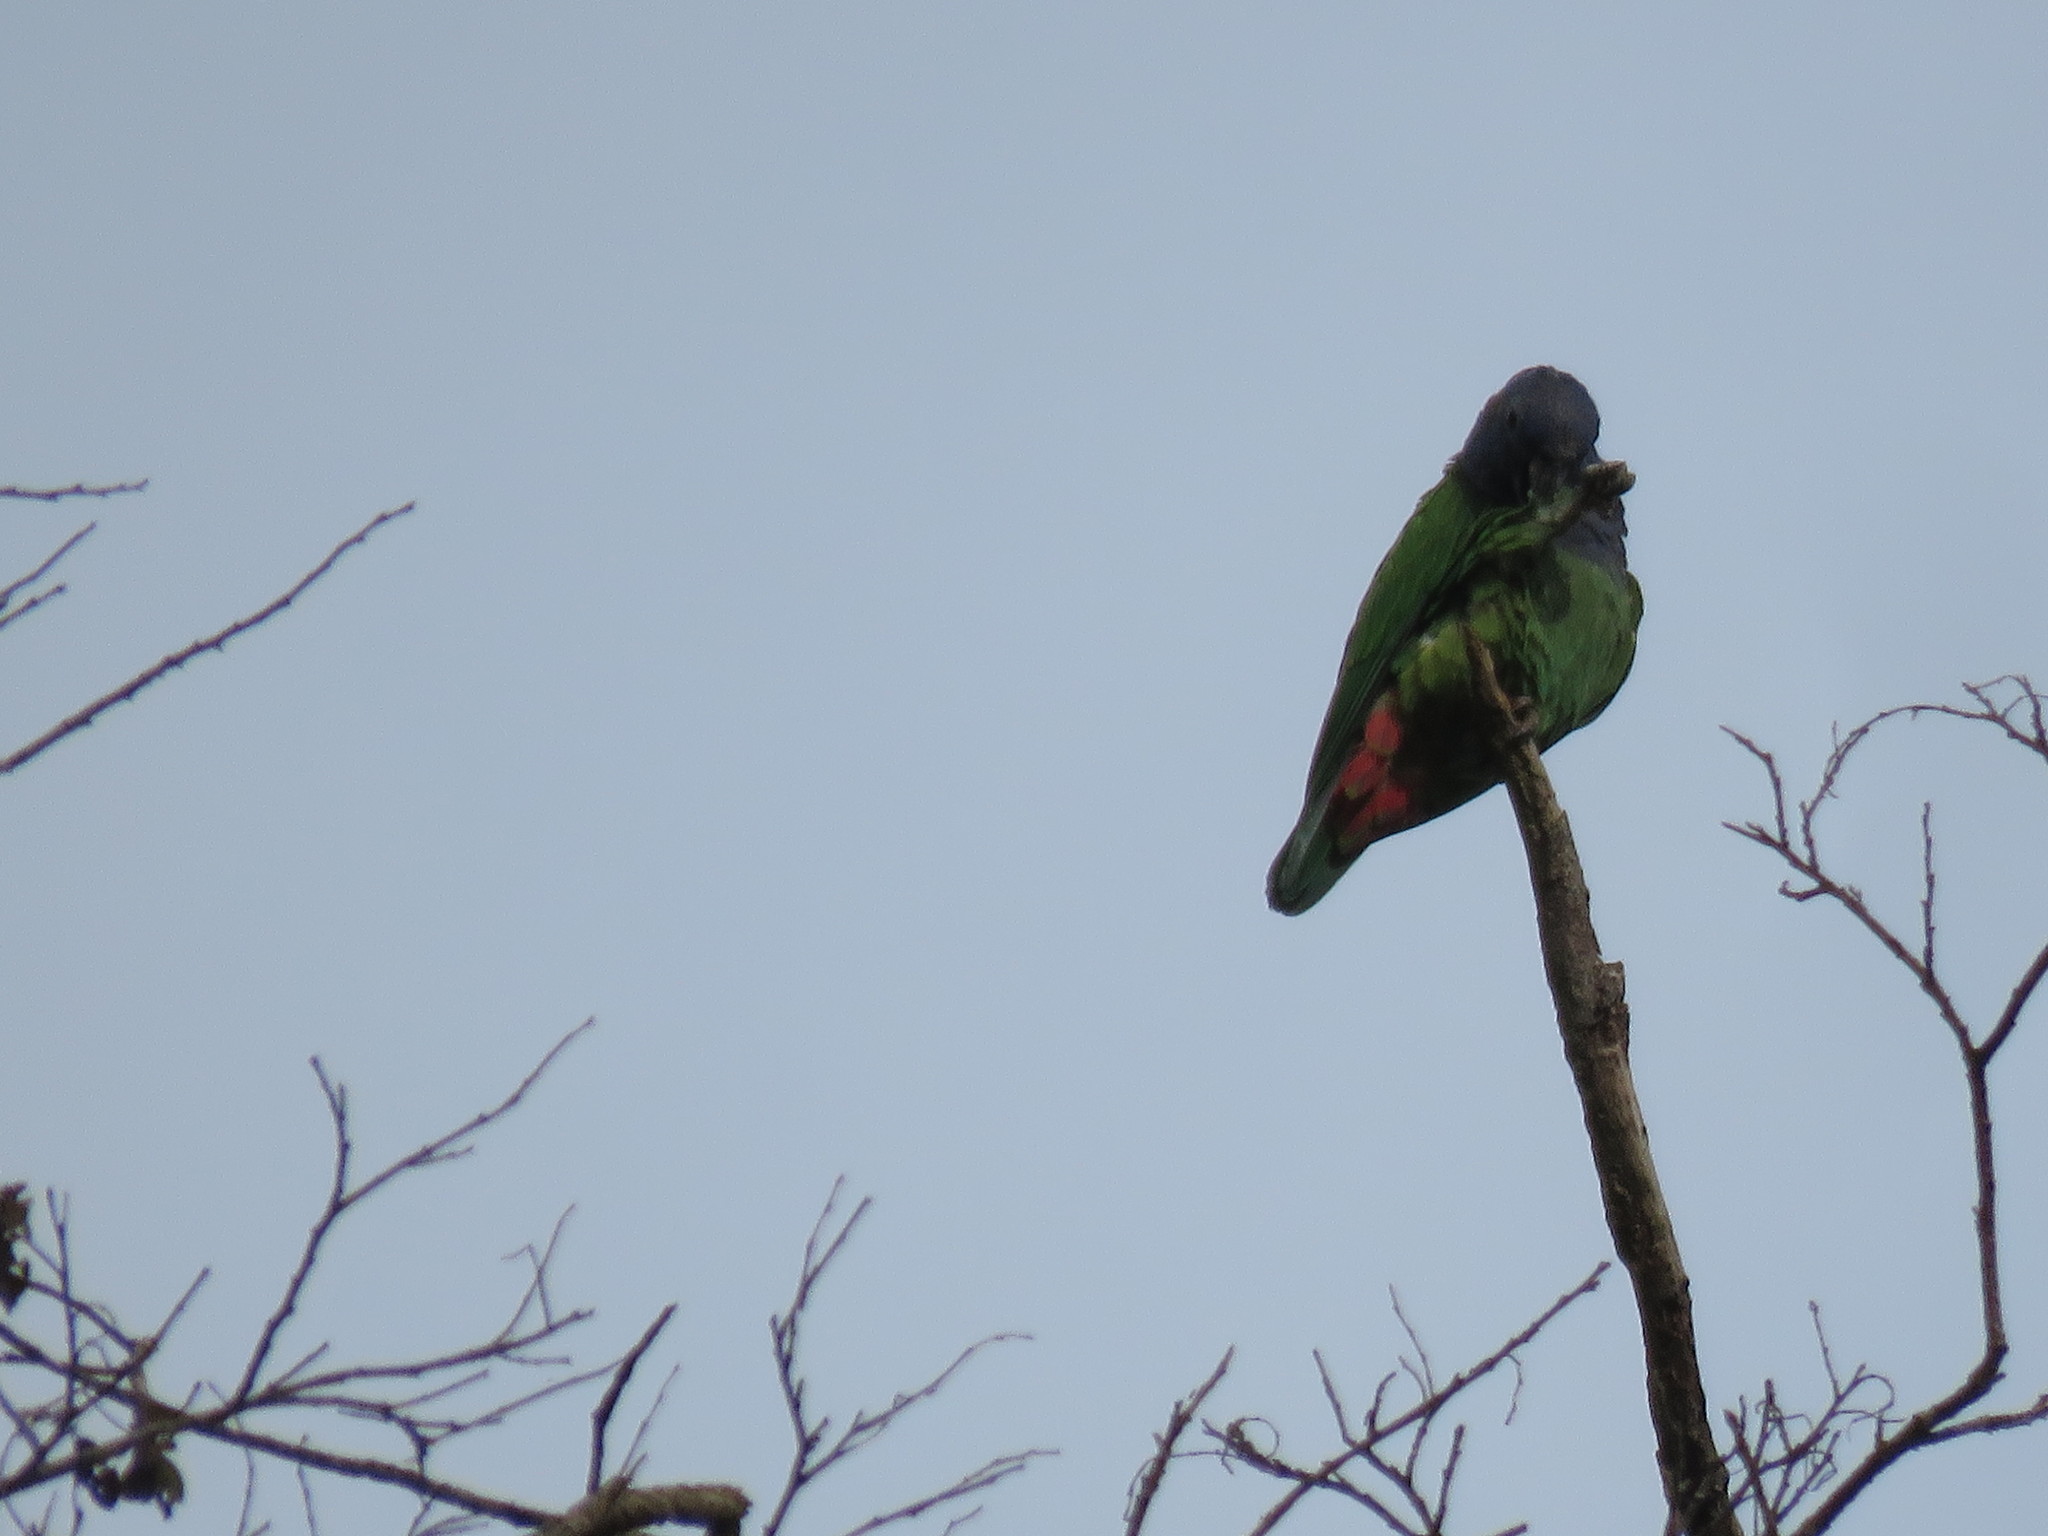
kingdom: Animalia
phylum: Chordata
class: Aves
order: Psittaciformes
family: Psittacidae
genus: Pionus
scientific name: Pionus menstruus
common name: Blue-headed parrot
